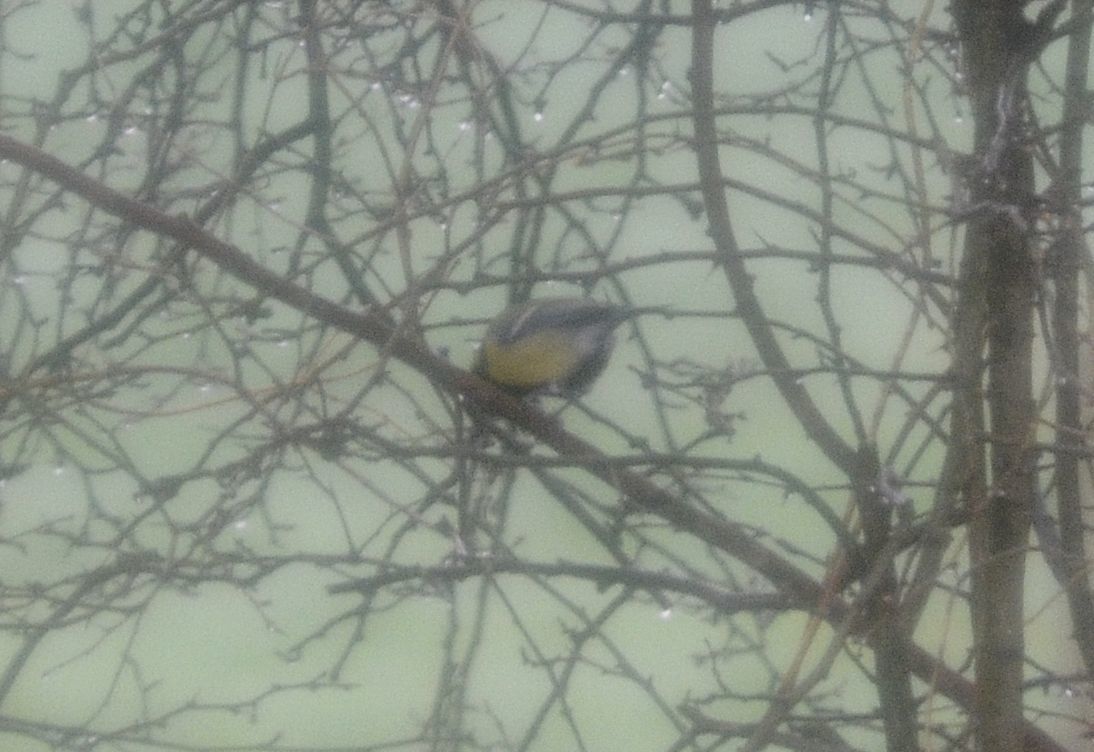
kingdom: Animalia
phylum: Chordata
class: Aves
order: Passeriformes
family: Paridae
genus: Parus
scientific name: Parus major
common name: Great tit
